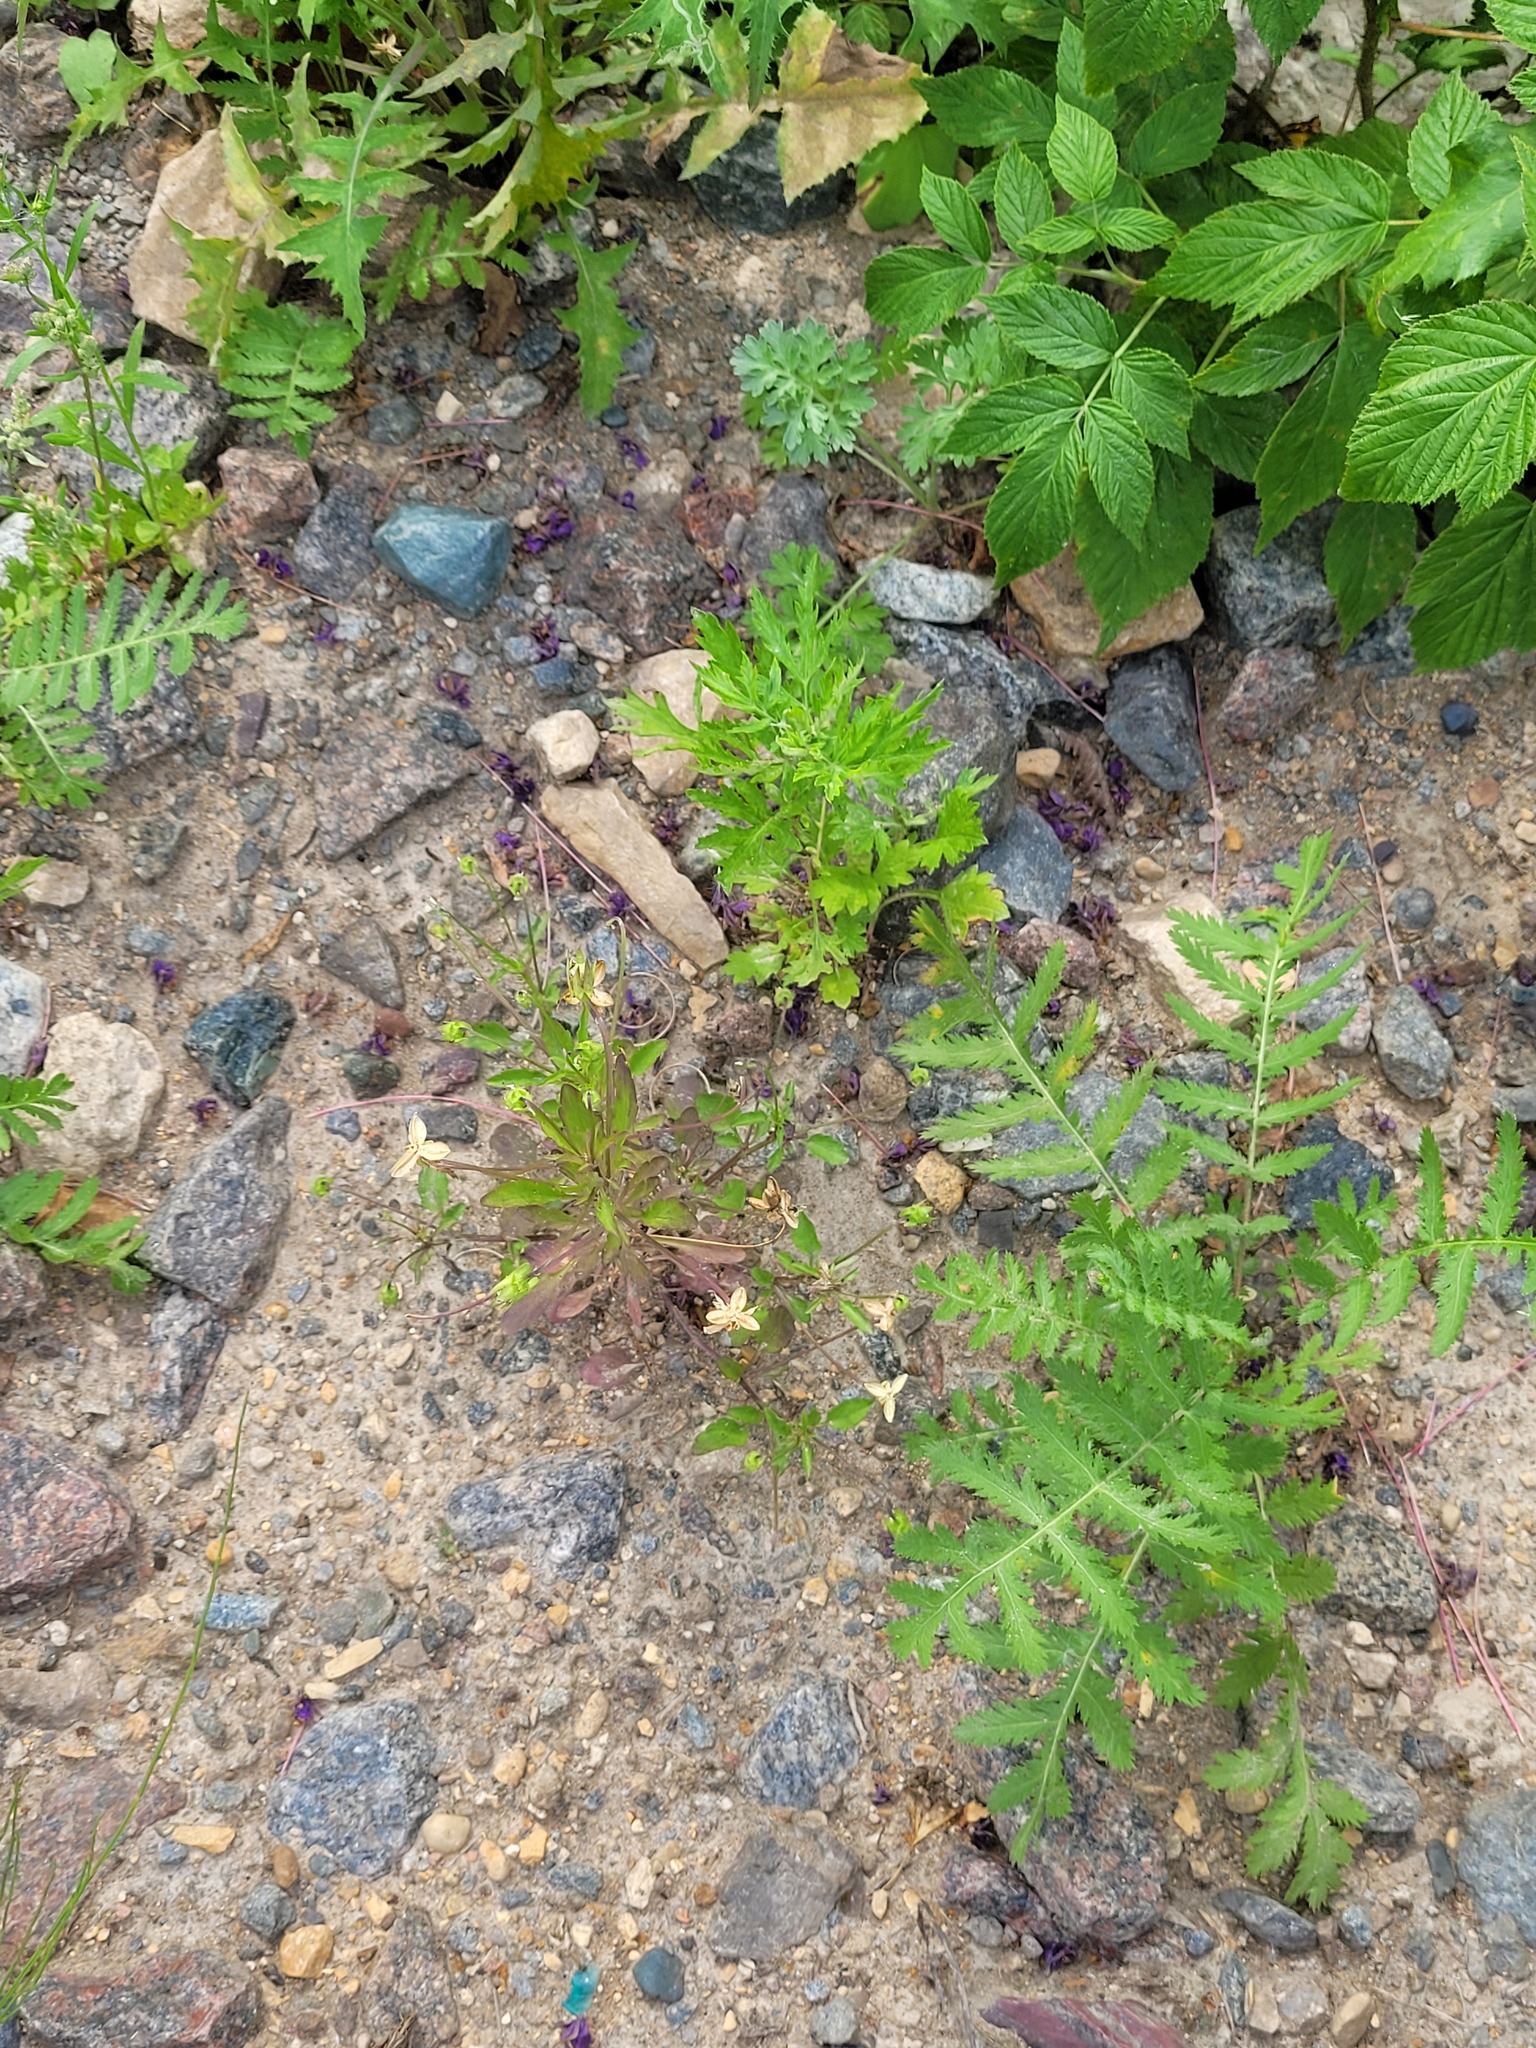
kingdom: Plantae
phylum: Tracheophyta
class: Magnoliopsida
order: Malpighiales
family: Violaceae
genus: Viola
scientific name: Viola arvensis
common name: Field pansy
